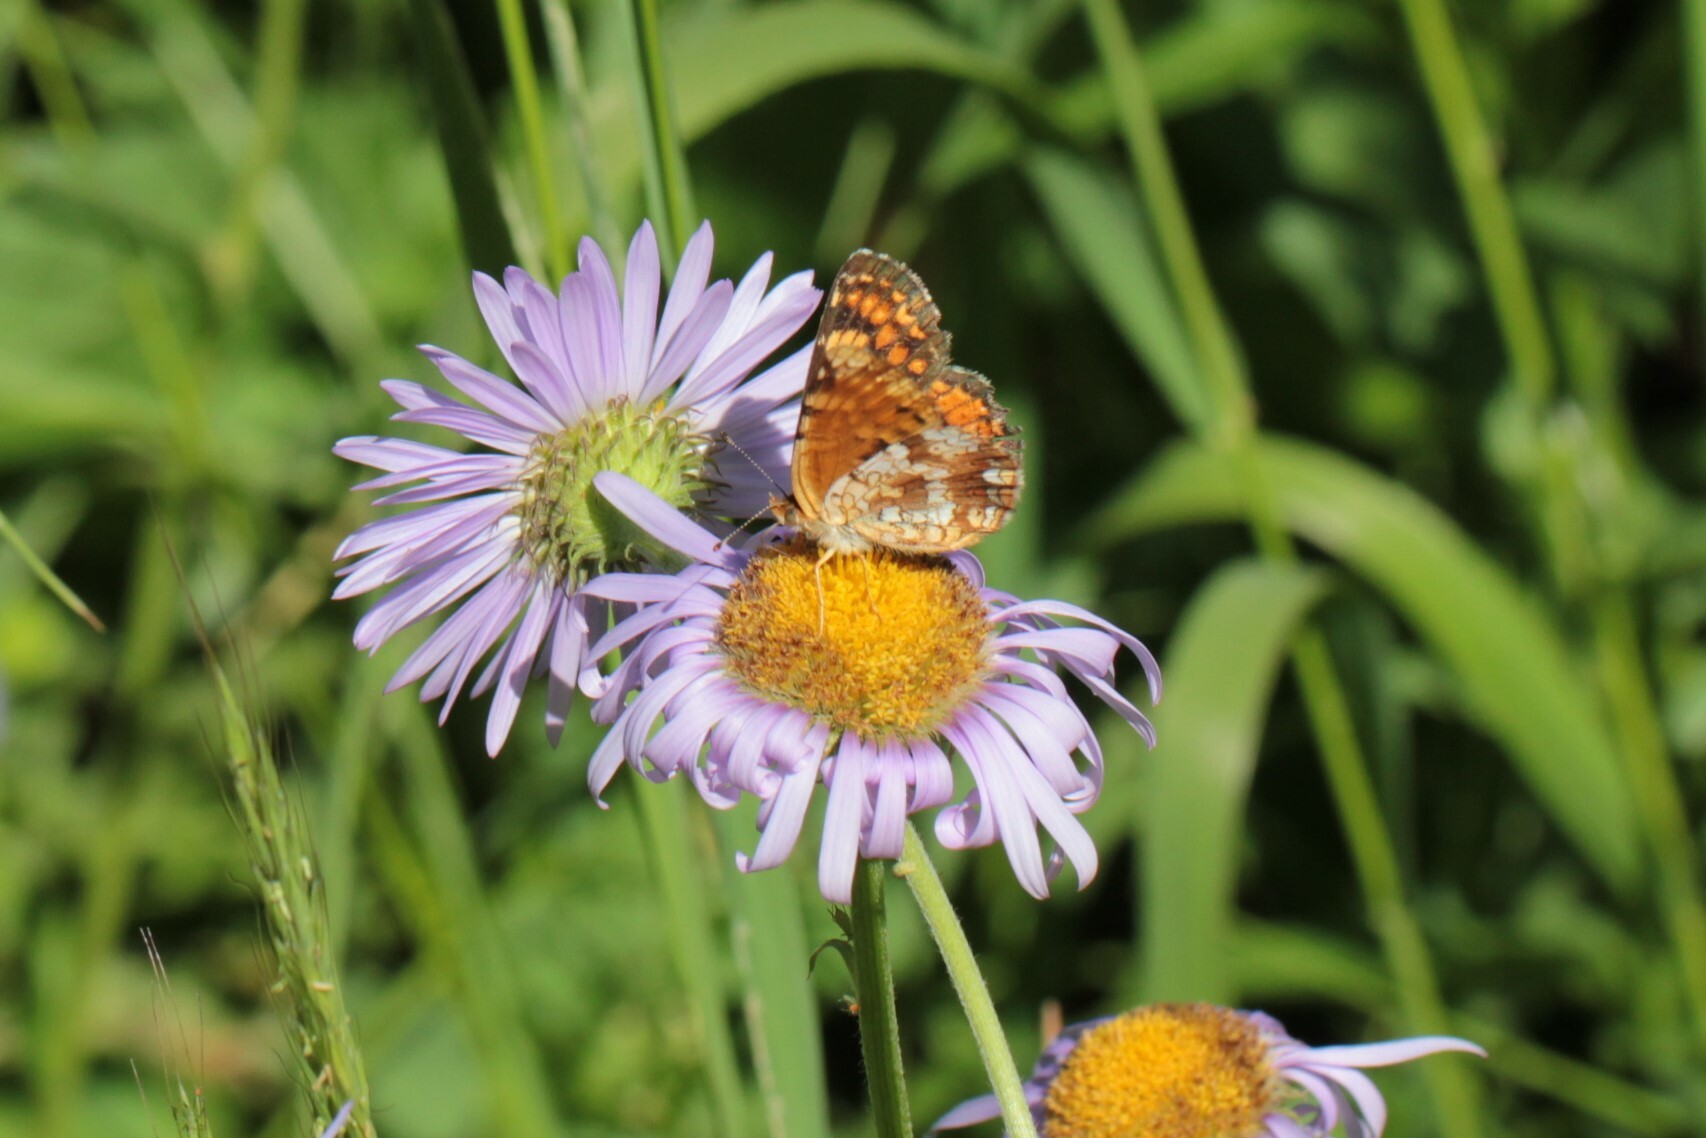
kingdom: Animalia
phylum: Arthropoda
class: Insecta
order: Lepidoptera
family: Nymphalidae
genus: Phyciodes
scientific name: Phyciodes tharos
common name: Pearl crescent
